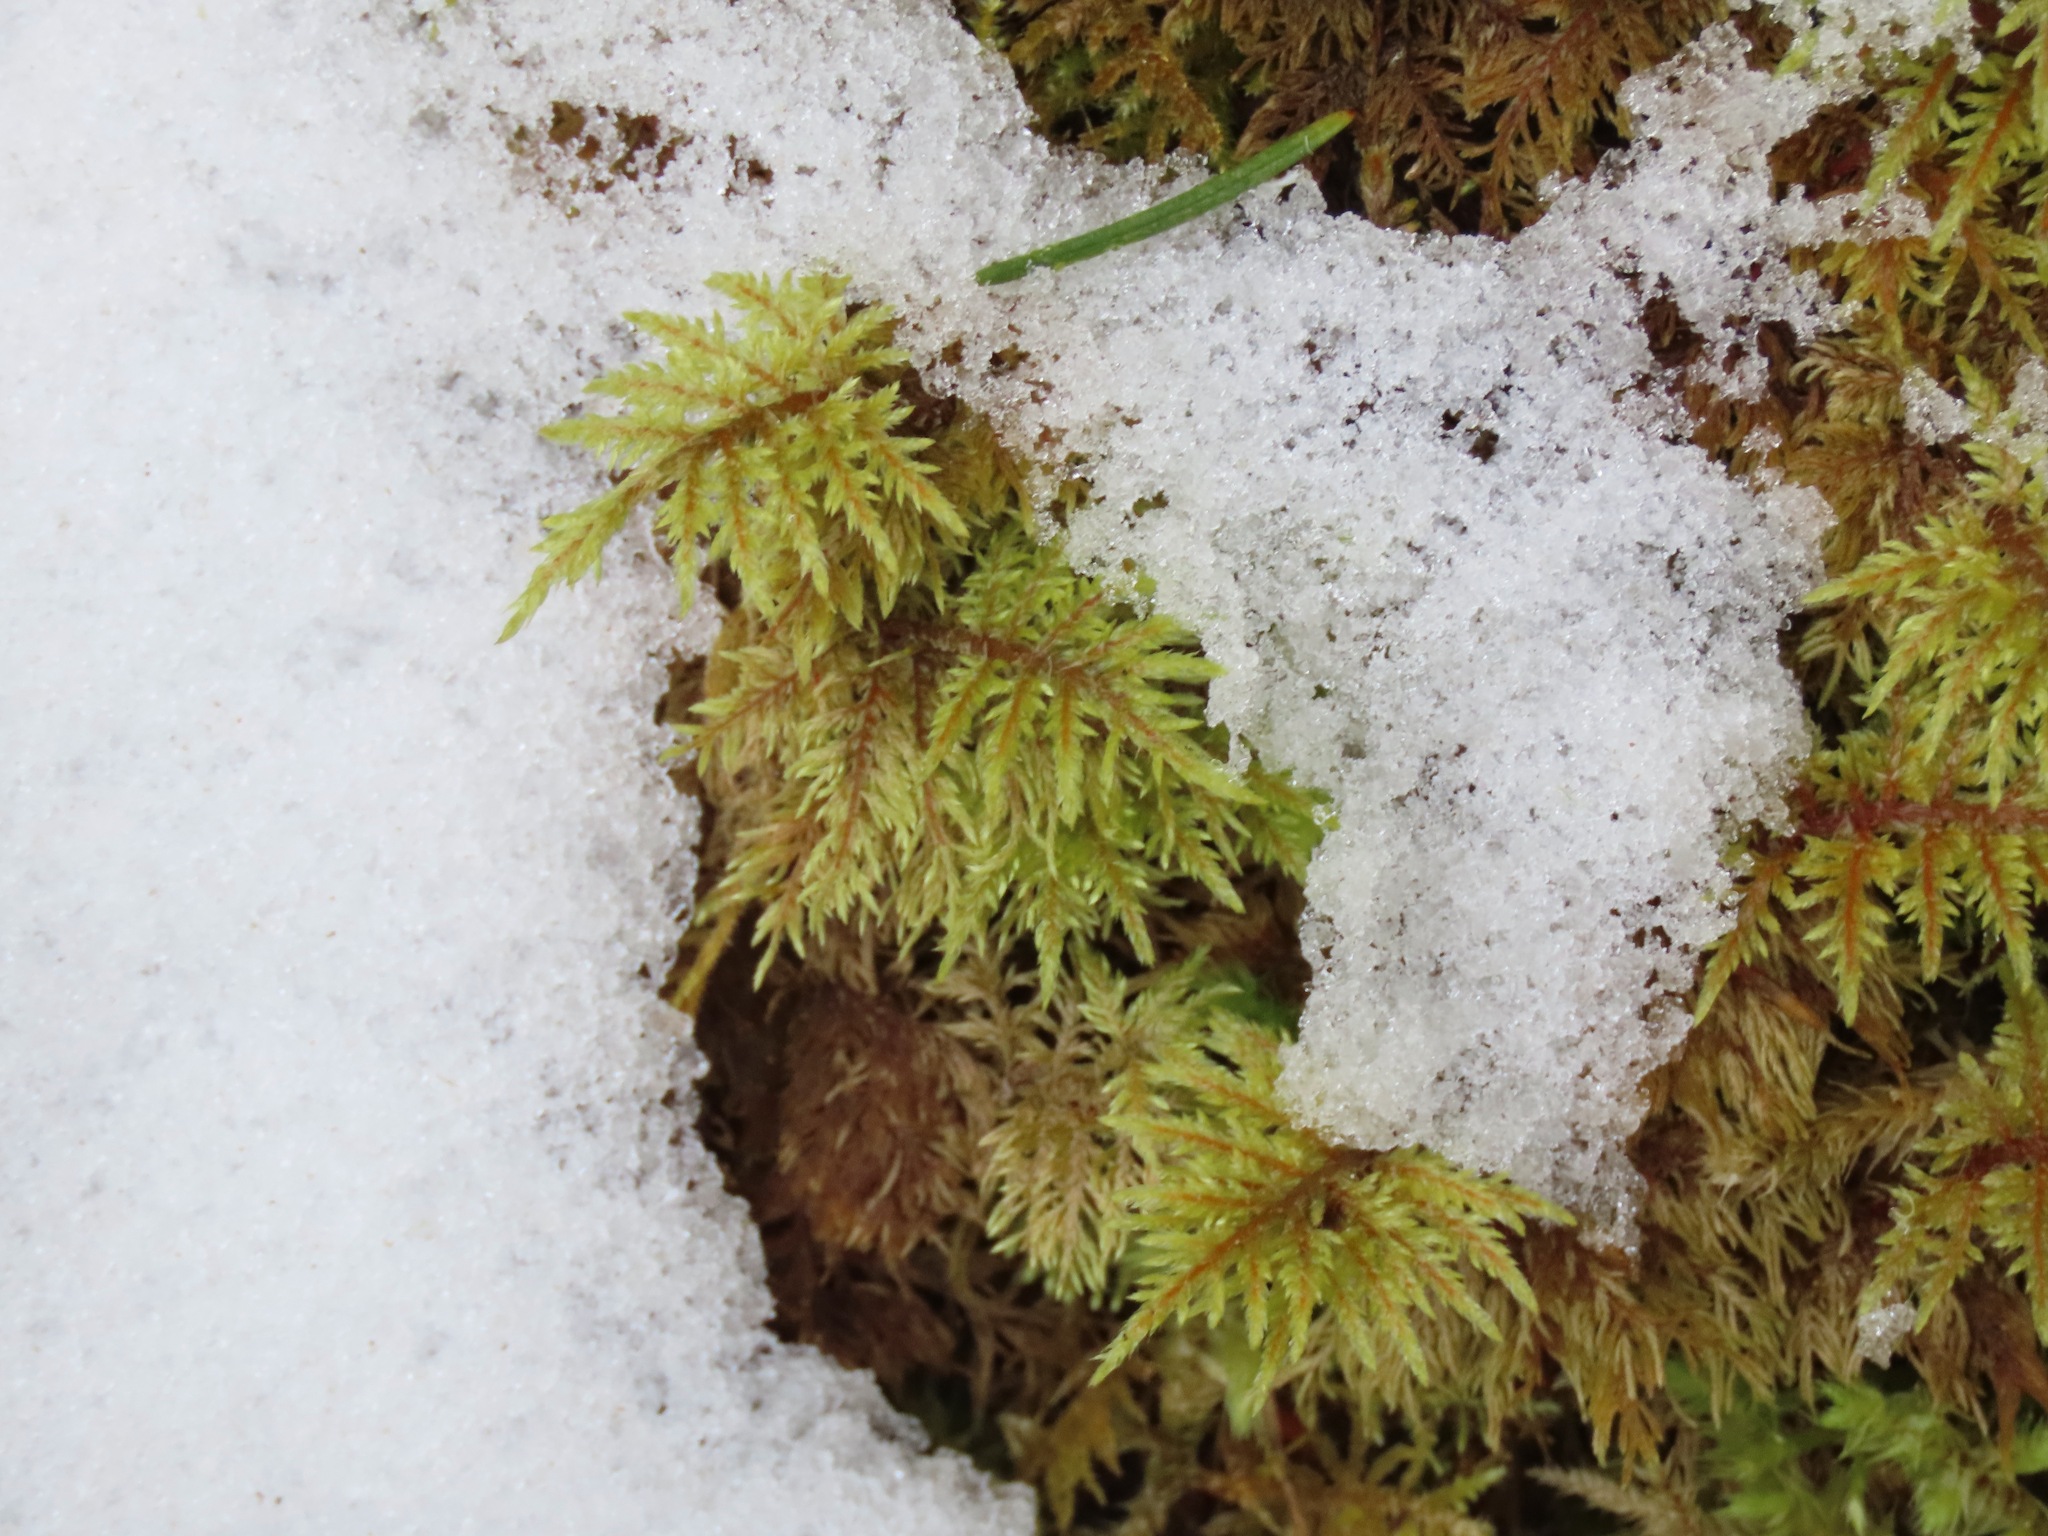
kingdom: Plantae
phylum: Bryophyta
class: Bryopsida
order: Hypnales
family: Hylocomiaceae
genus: Hylocomium
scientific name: Hylocomium splendens
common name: Stairstep moss
